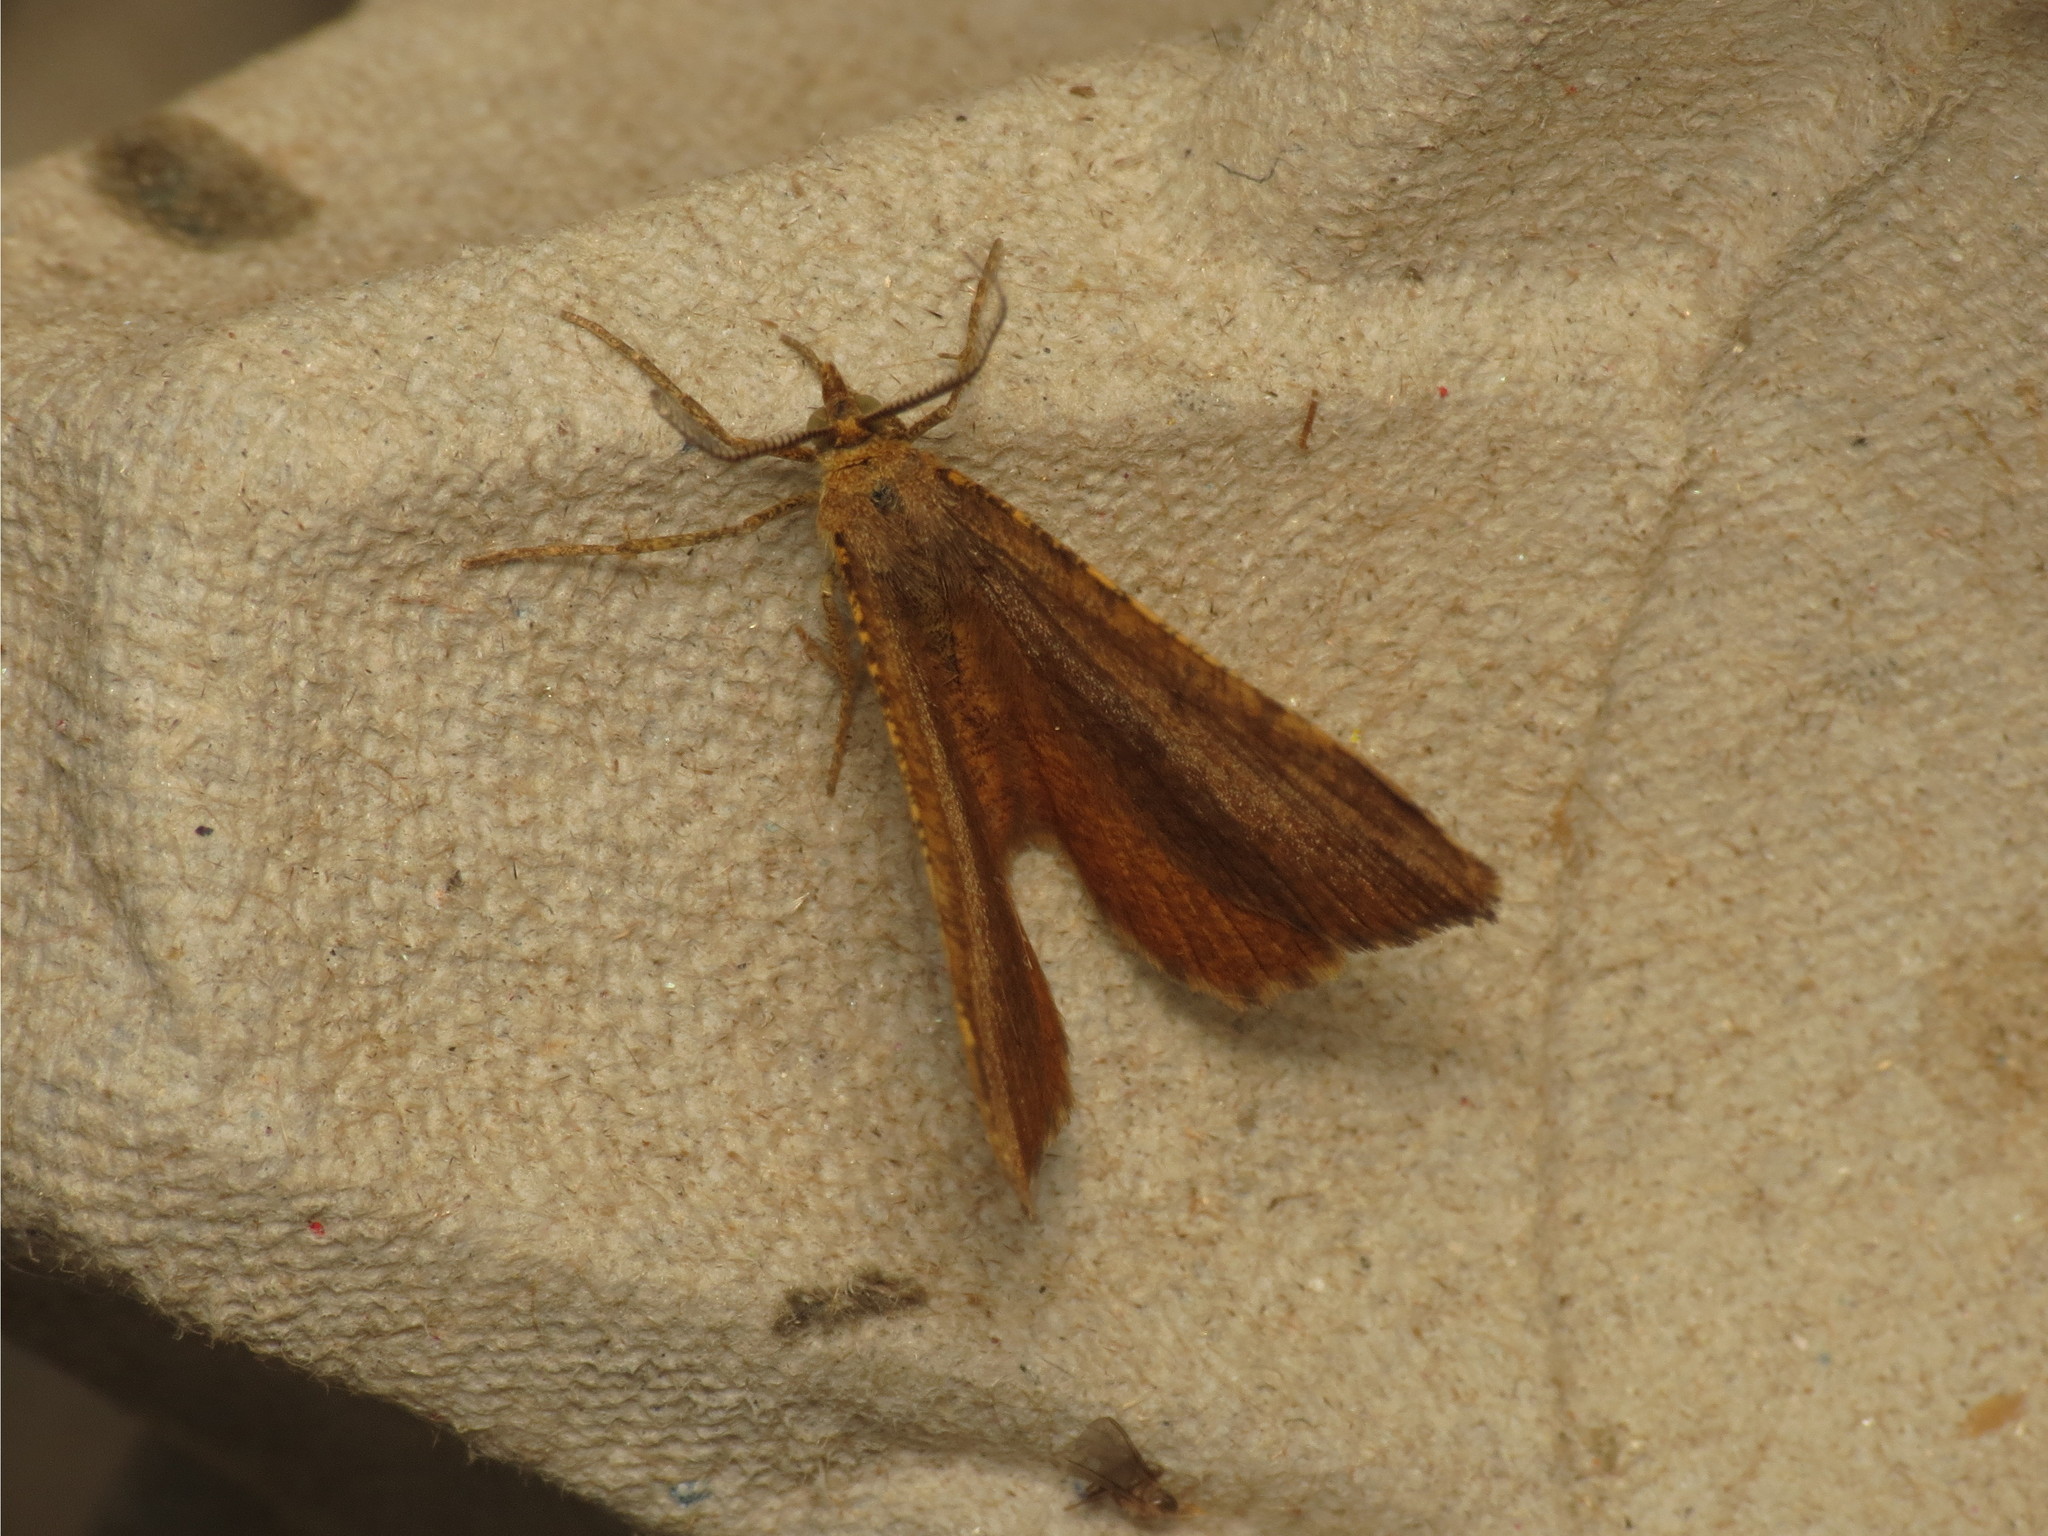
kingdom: Animalia
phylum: Arthropoda
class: Insecta
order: Lepidoptera
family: Geometridae
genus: Macaria
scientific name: Macaria brunneata
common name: Rannoch looper
